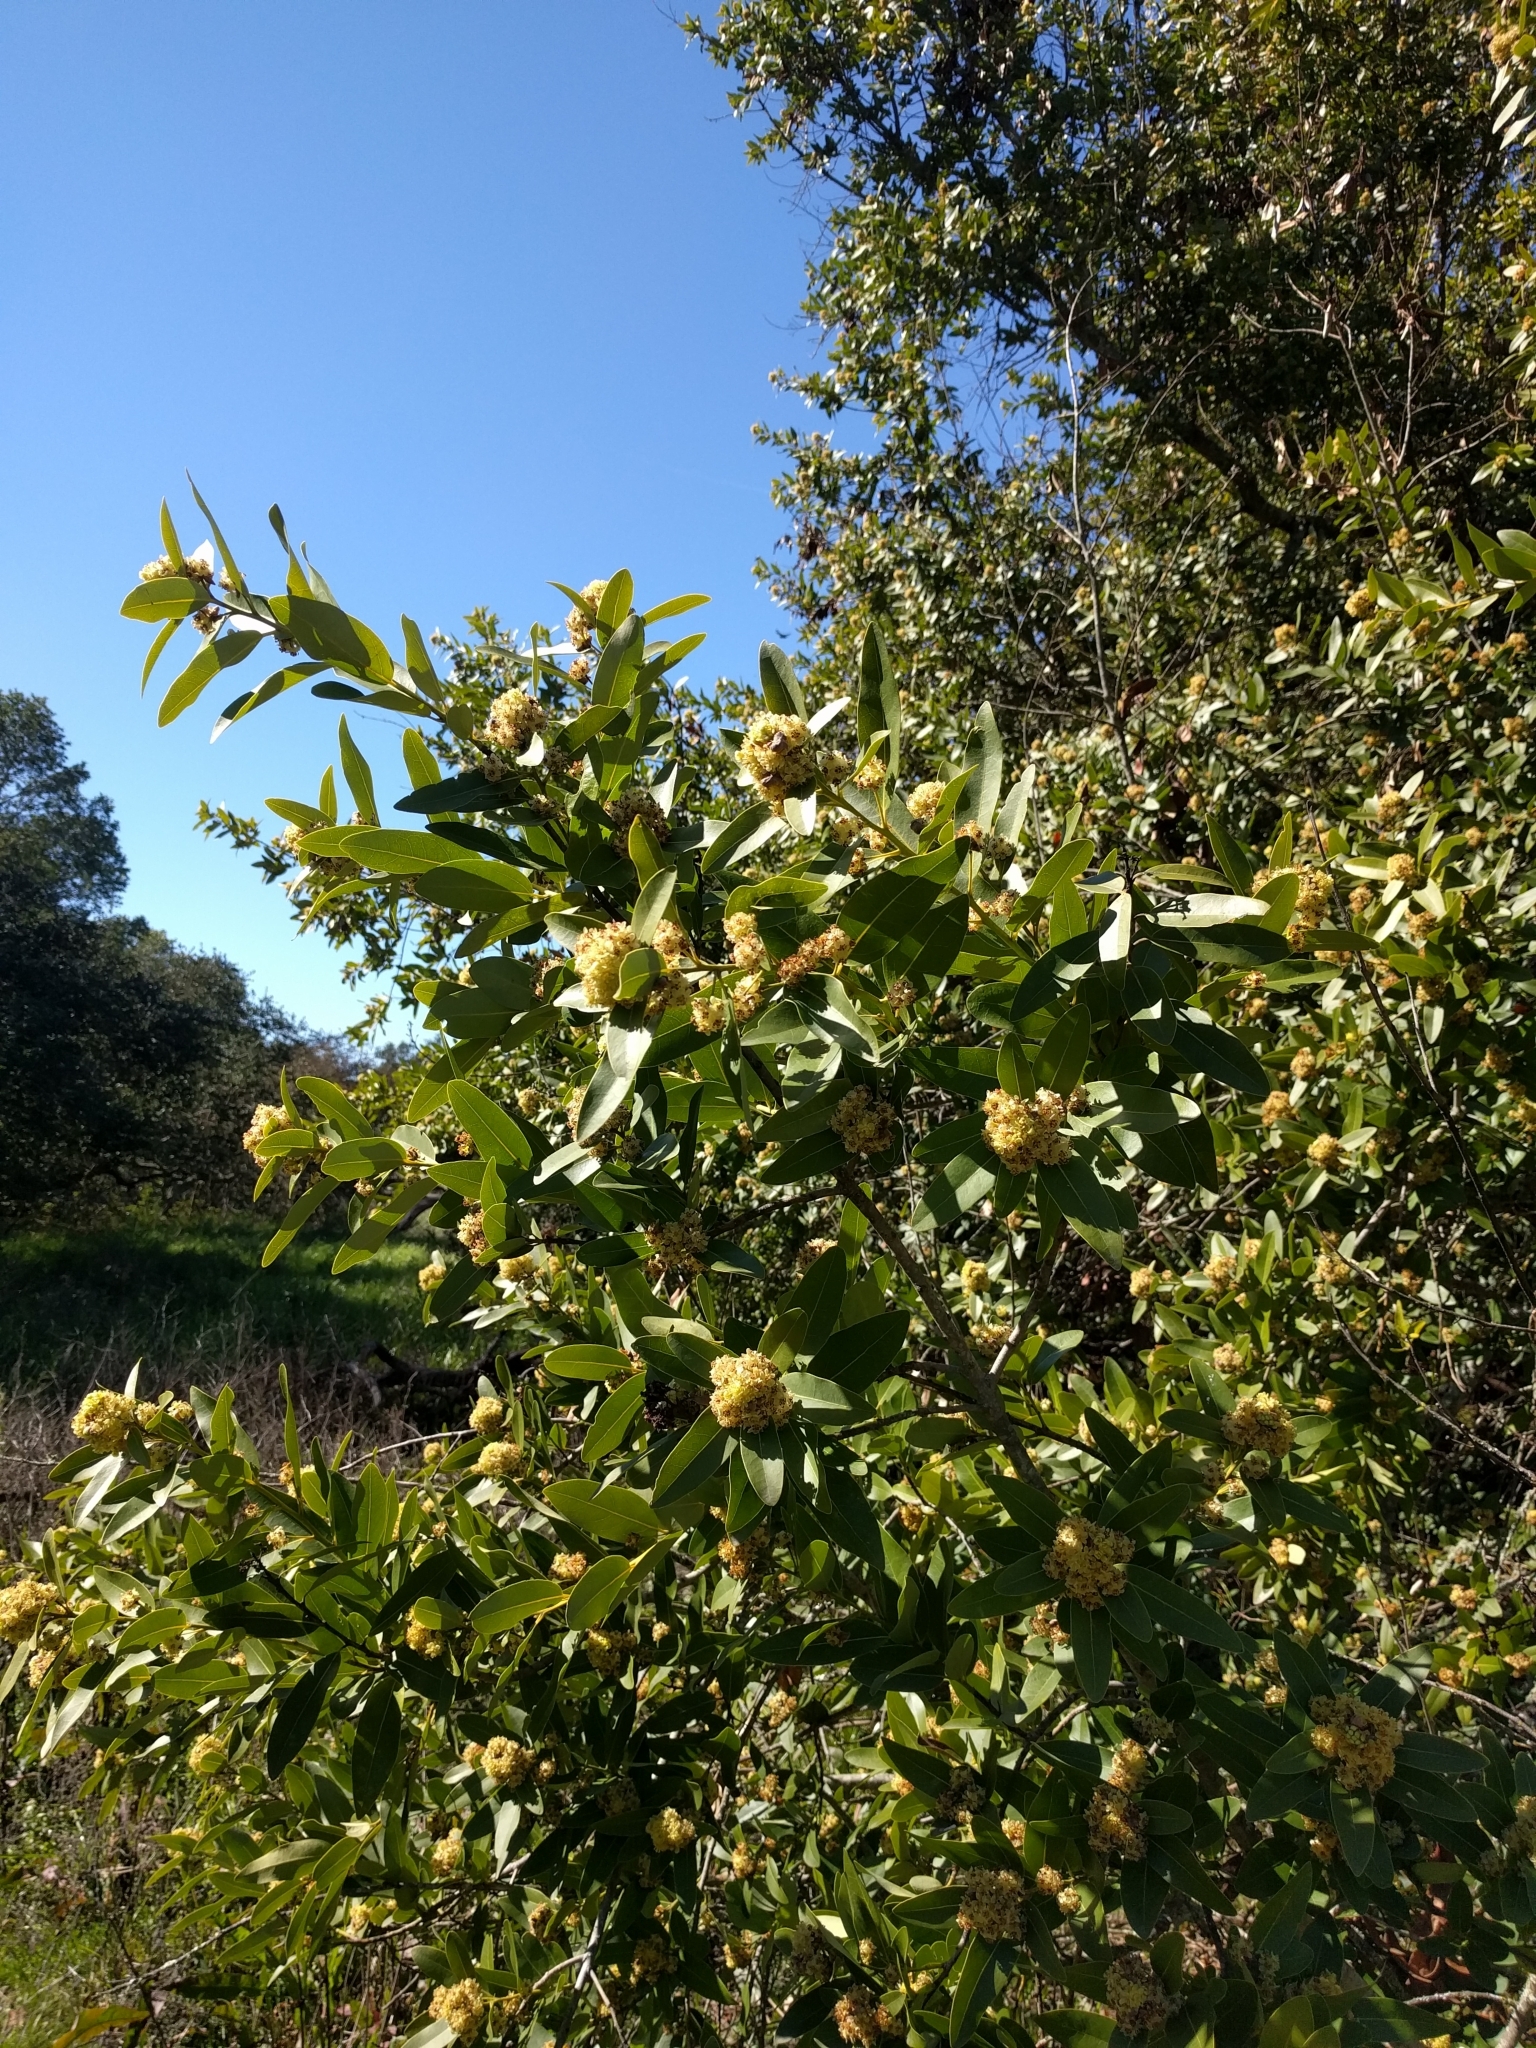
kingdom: Plantae
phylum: Tracheophyta
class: Magnoliopsida
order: Laurales
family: Lauraceae
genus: Umbellularia
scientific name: Umbellularia californica
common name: California bay
